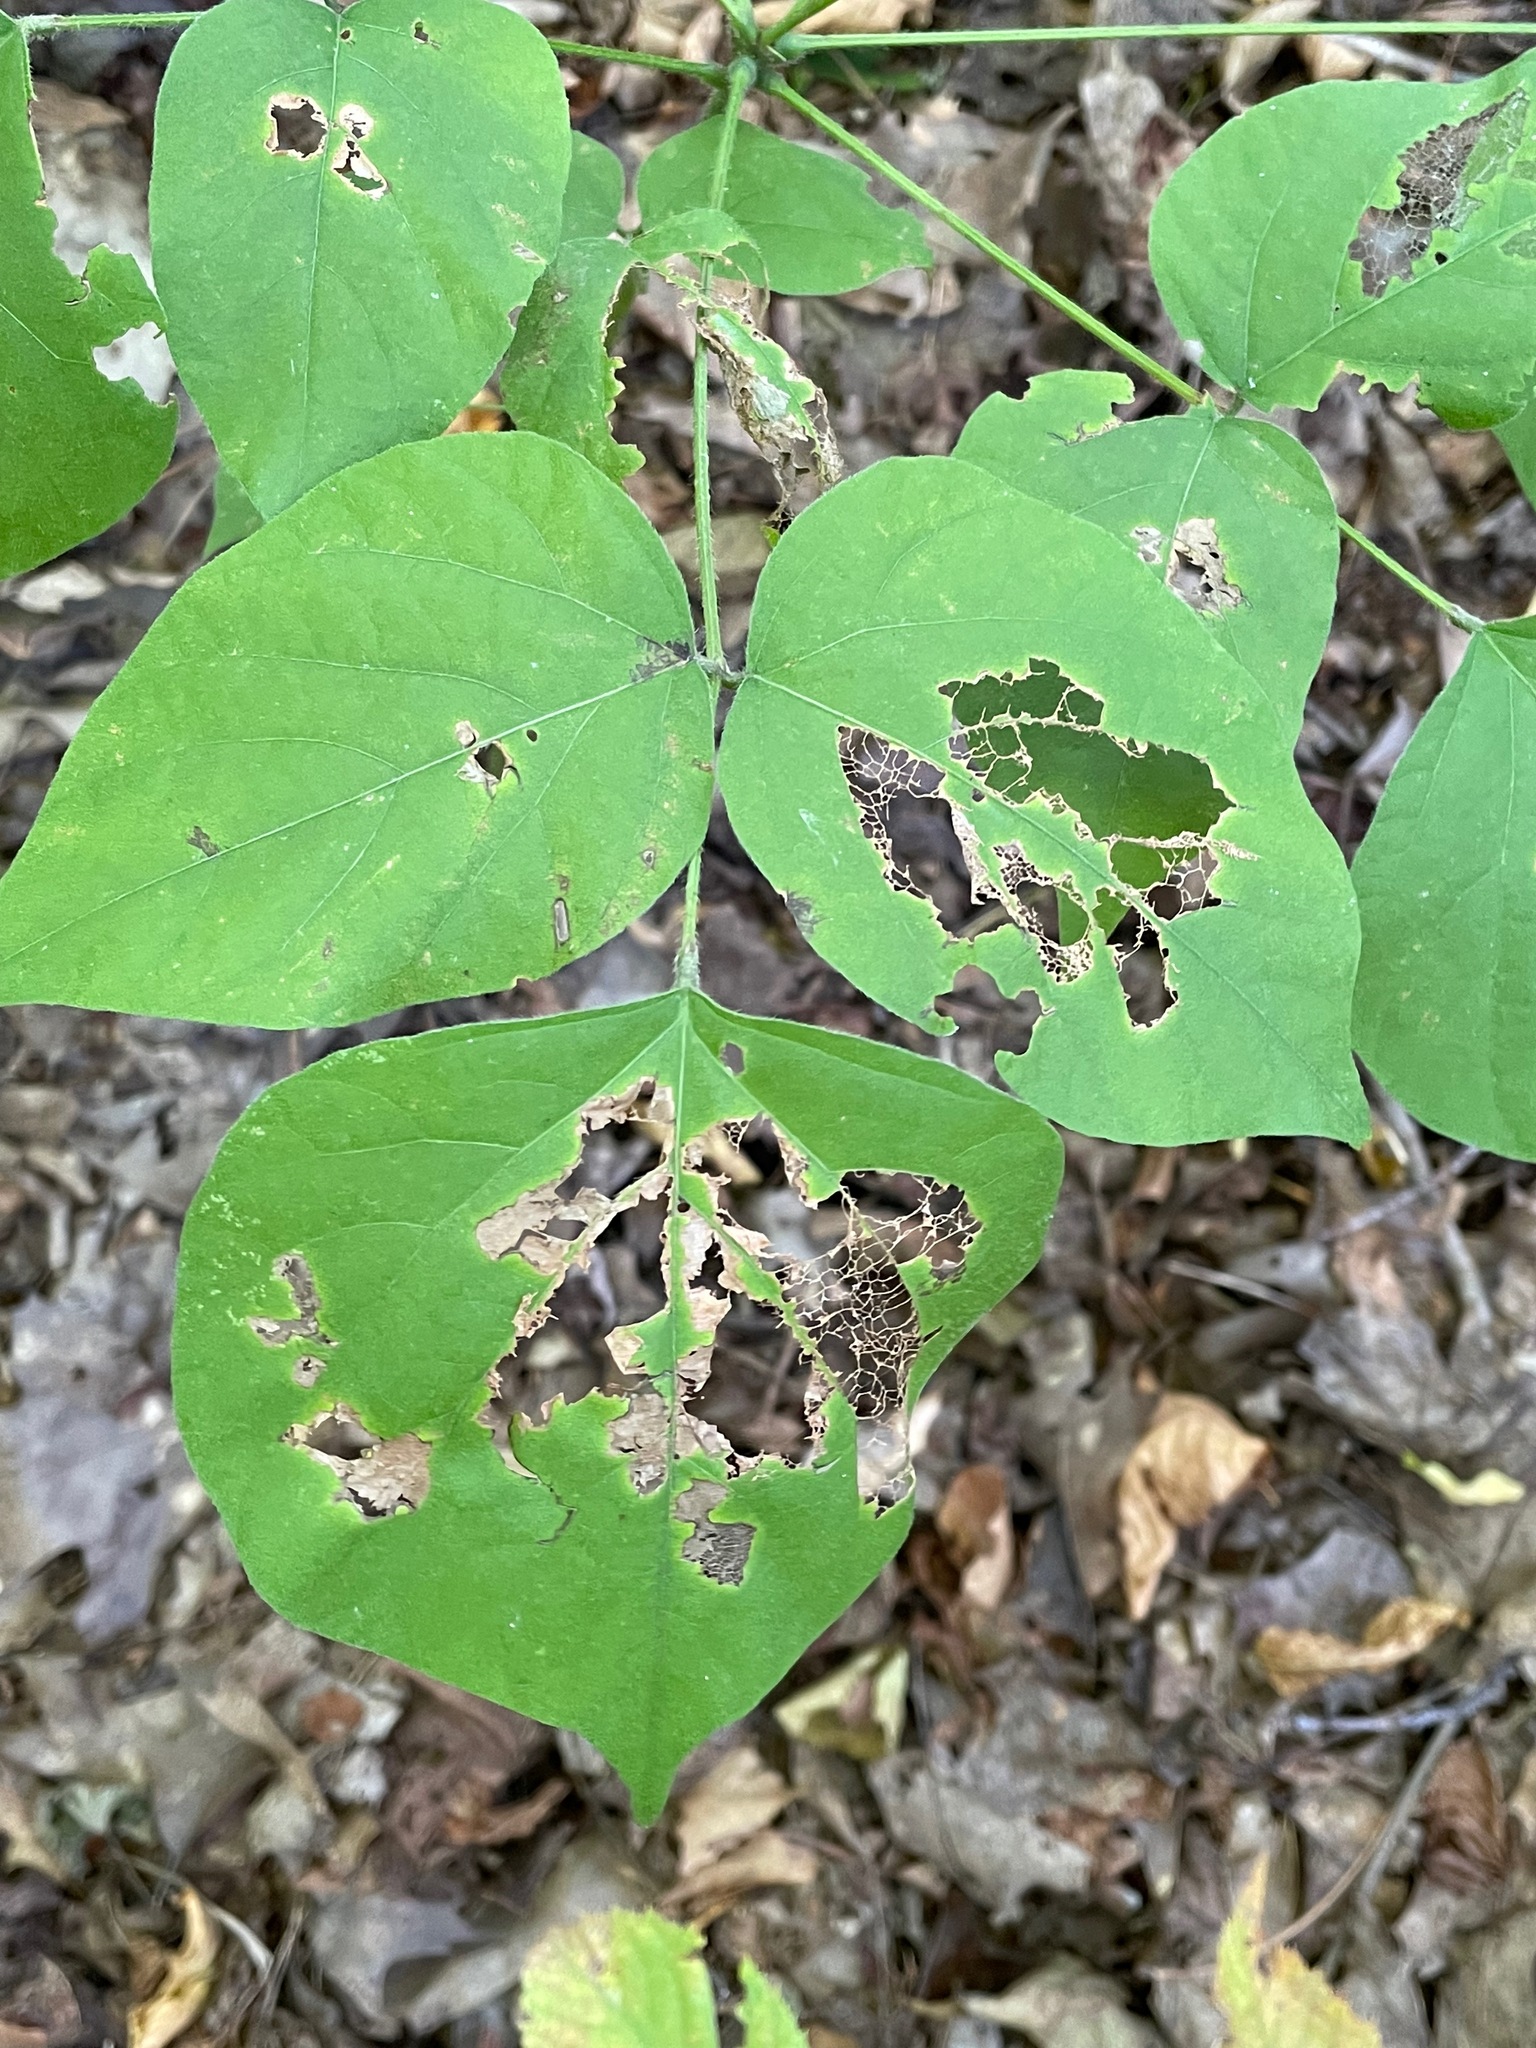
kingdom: Plantae
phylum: Tracheophyta
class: Magnoliopsida
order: Fabales
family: Fabaceae
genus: Hylodesmum
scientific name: Hylodesmum glutinosum
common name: Clustered-leaved tick-trefoil
